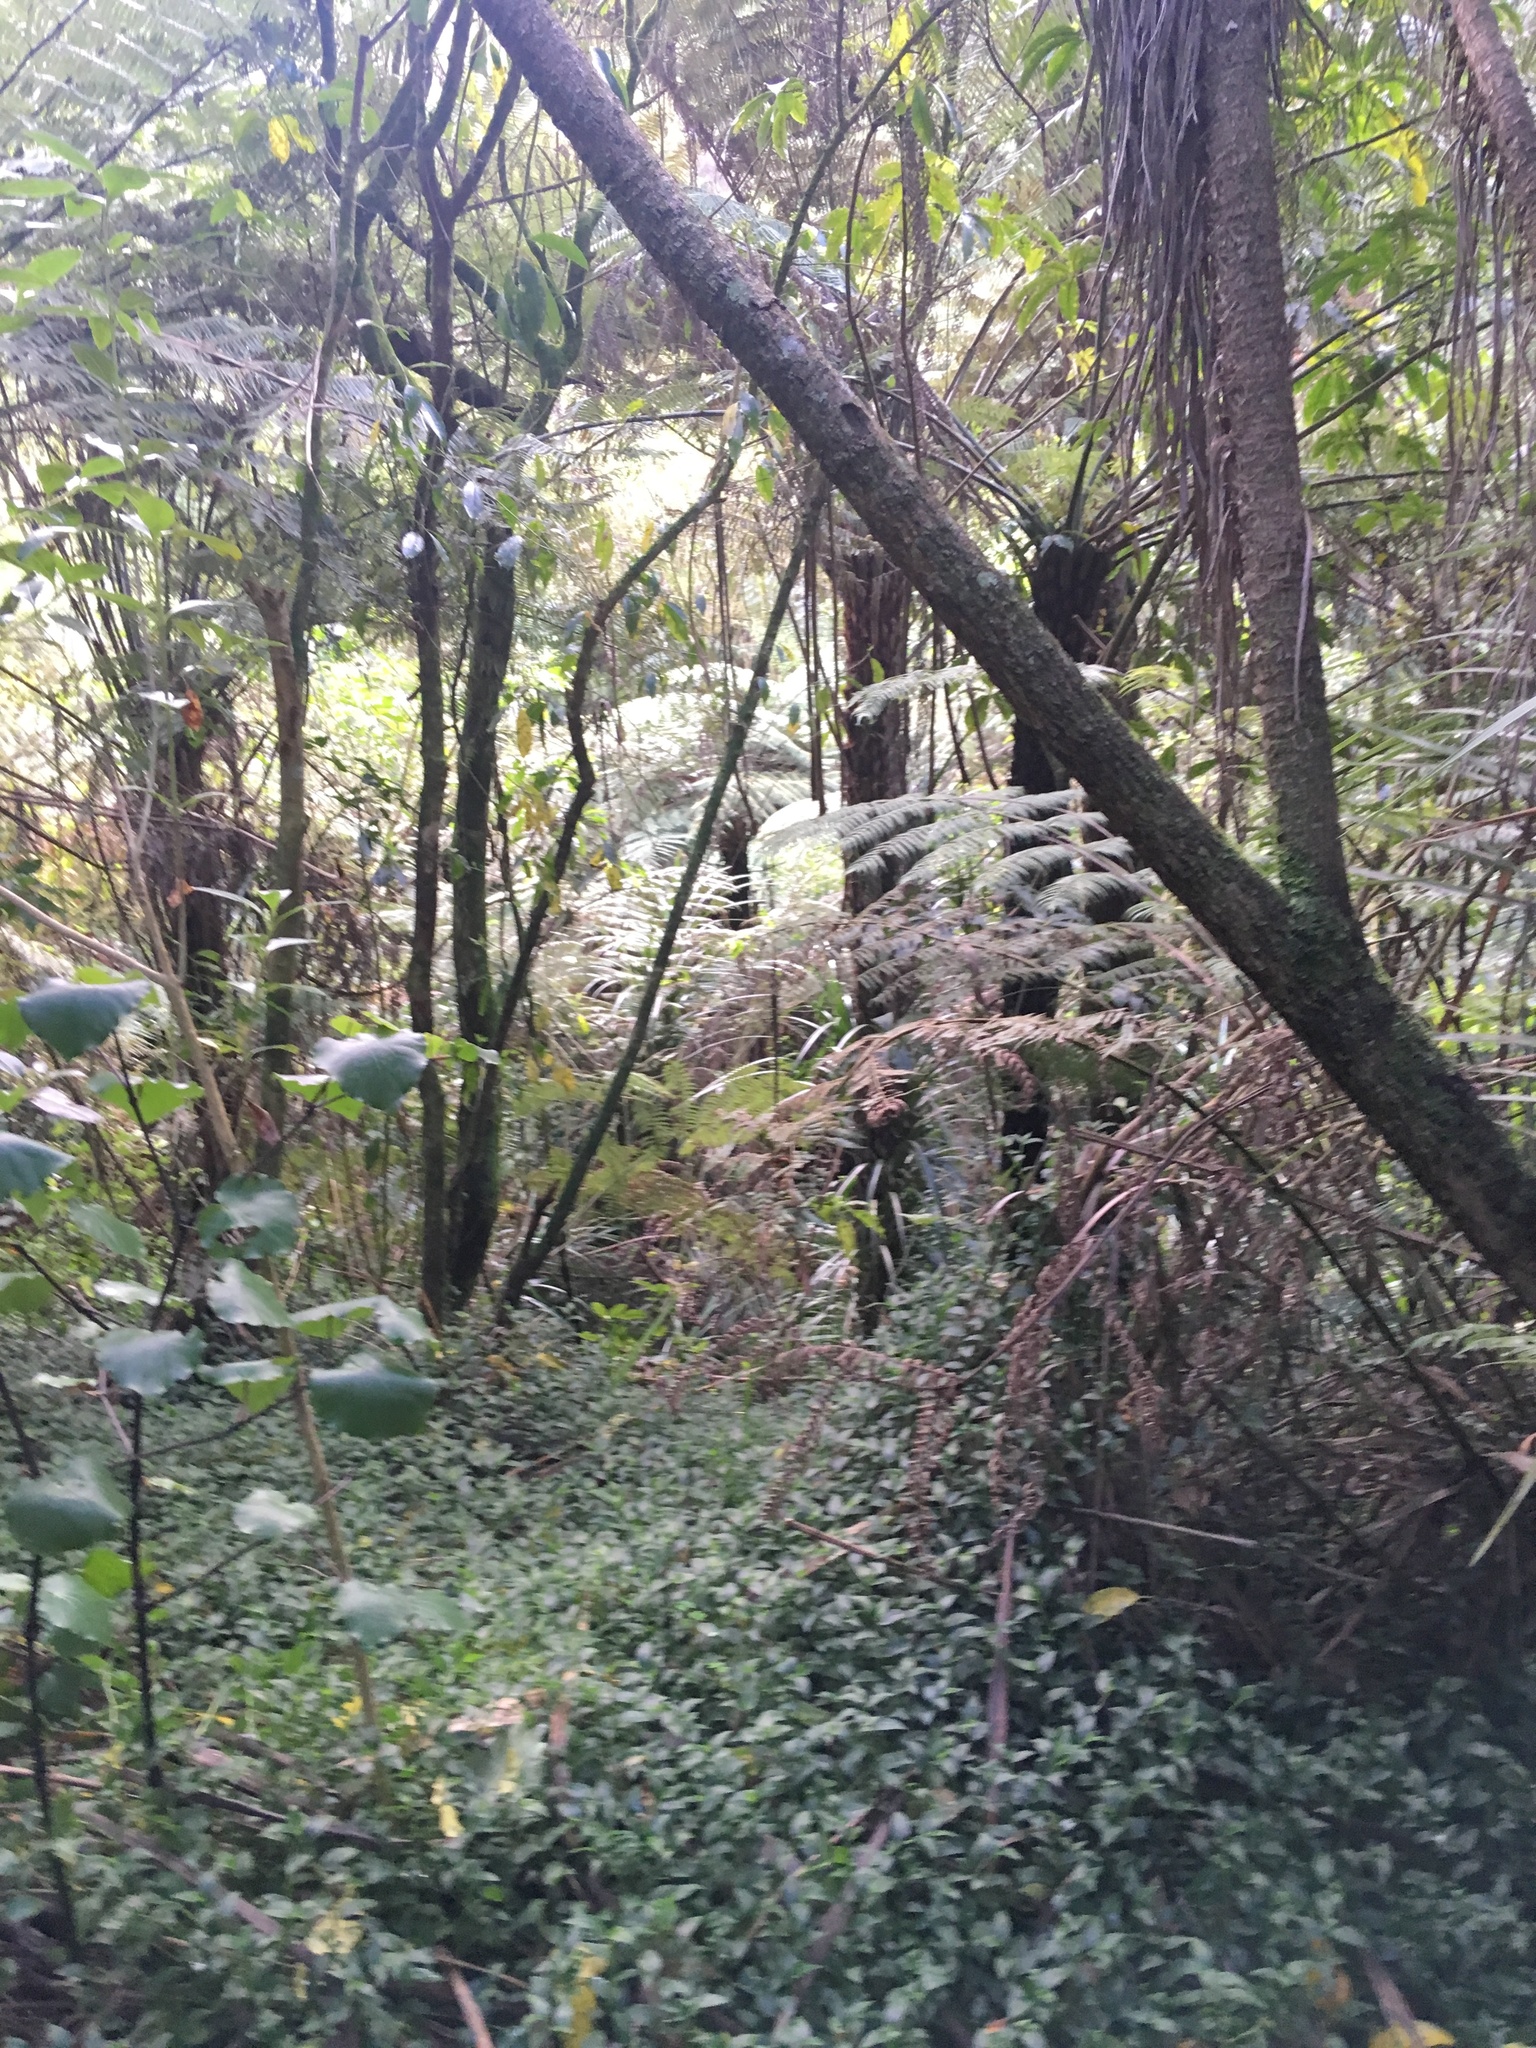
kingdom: Plantae
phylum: Tracheophyta
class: Liliopsida
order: Commelinales
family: Commelinaceae
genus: Tradescantia
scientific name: Tradescantia fluminensis
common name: Wandering-jew
